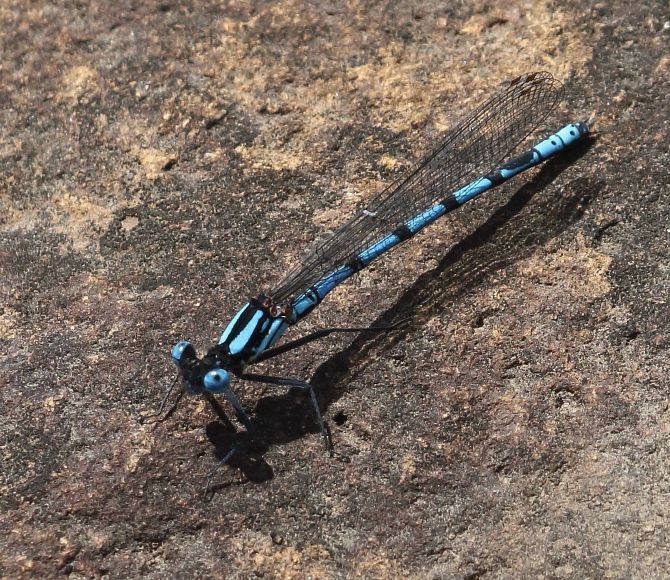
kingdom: Animalia
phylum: Arthropoda
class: Insecta
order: Odonata
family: Platycnemididae
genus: Metacnemis
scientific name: Metacnemis valida
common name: Kubusi featherlegs
